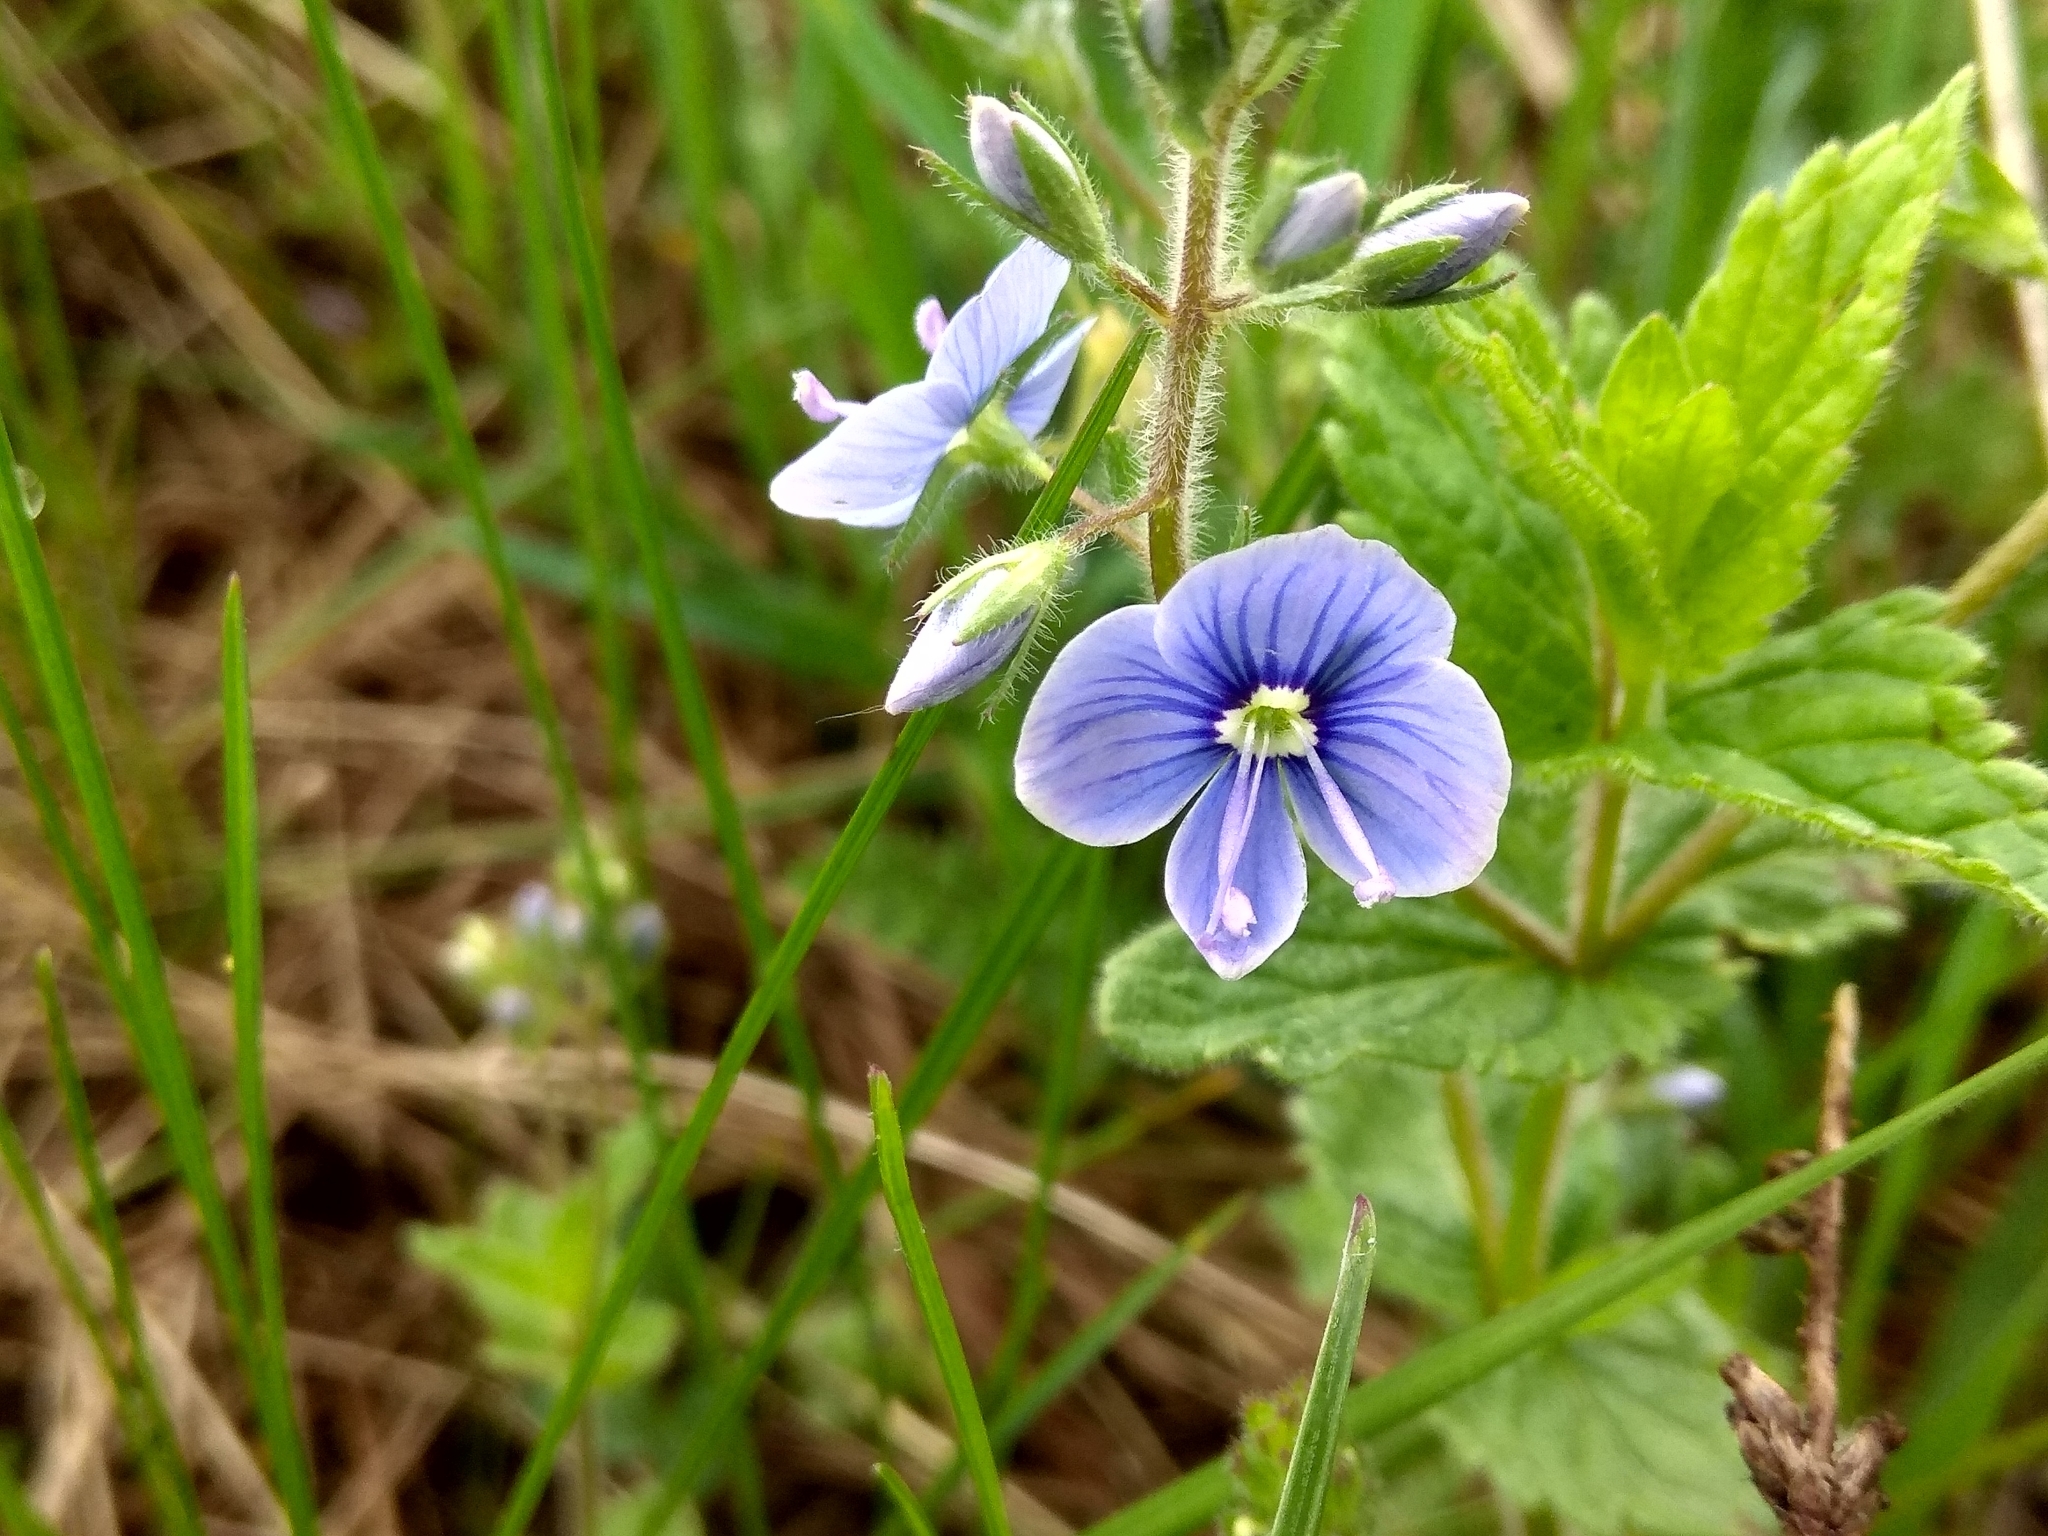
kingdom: Plantae
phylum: Tracheophyta
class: Magnoliopsida
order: Lamiales
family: Plantaginaceae
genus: Veronica
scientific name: Veronica chamaedrys
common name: Germander speedwell
